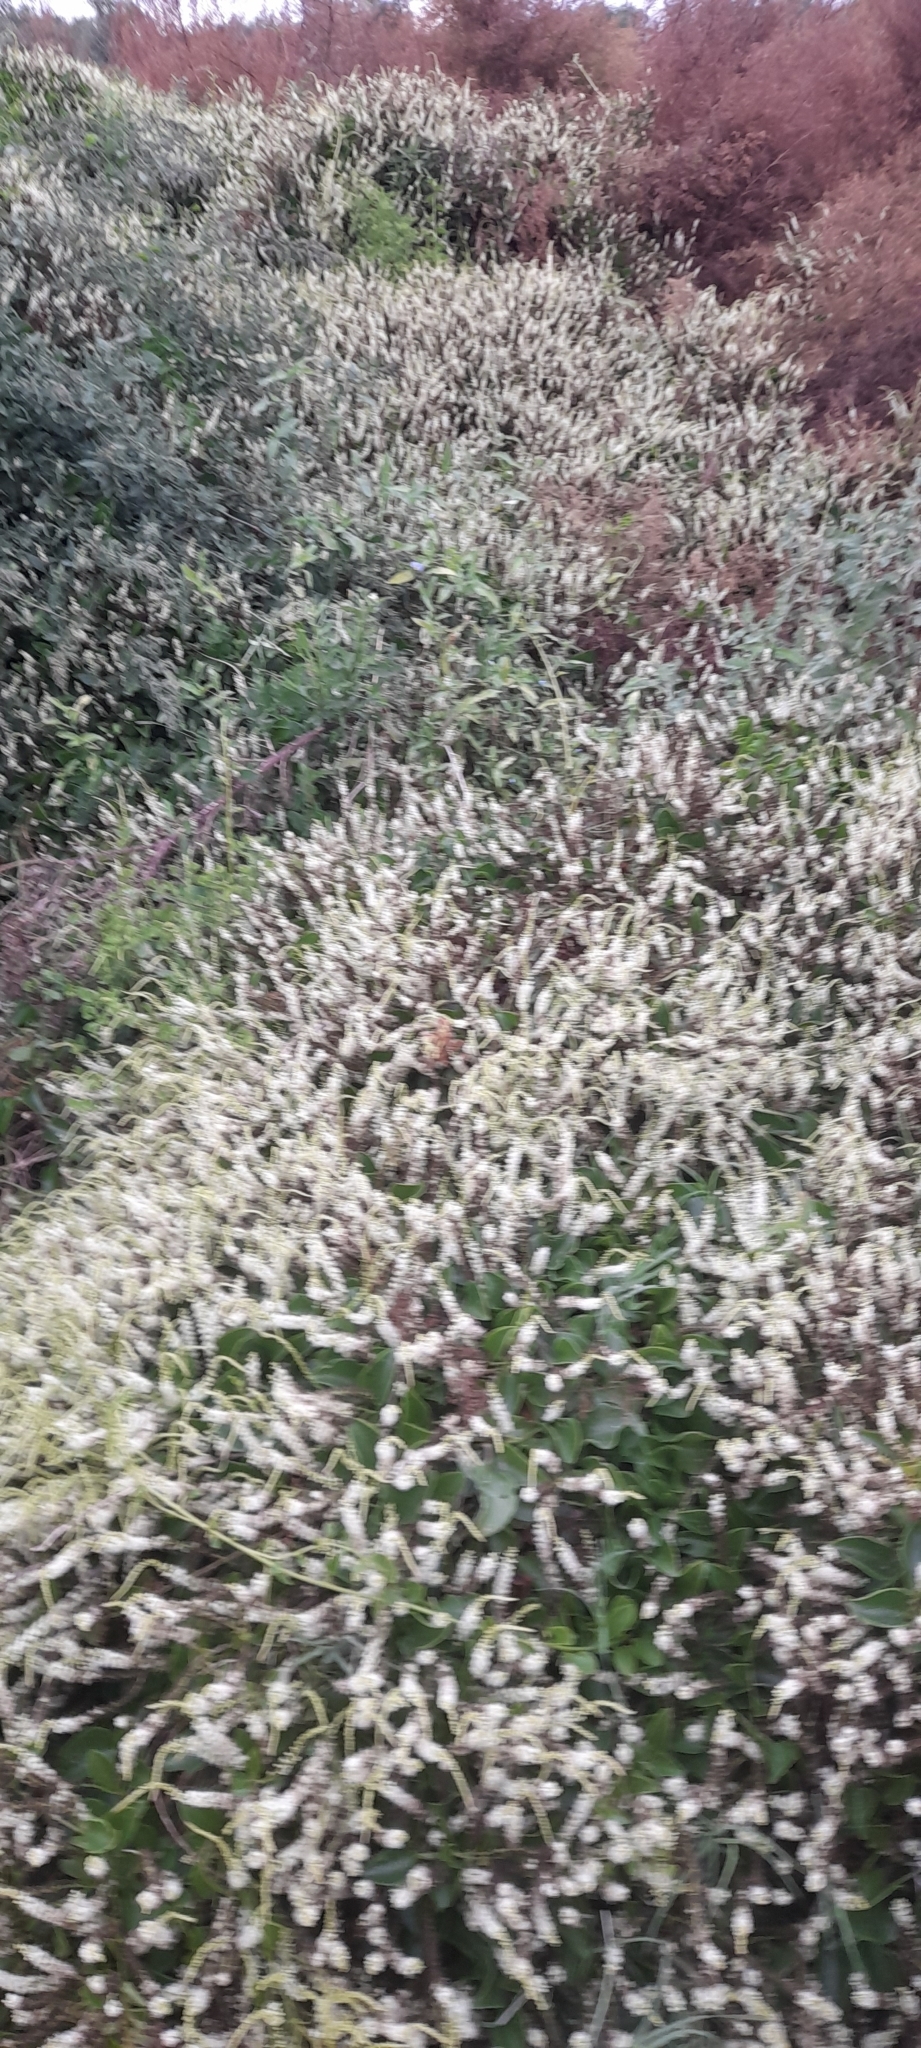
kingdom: Plantae
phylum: Tracheophyta
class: Magnoliopsida
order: Caryophyllales
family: Basellaceae
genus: Anredera
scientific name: Anredera cordifolia
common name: Heartleaf madeiravine
